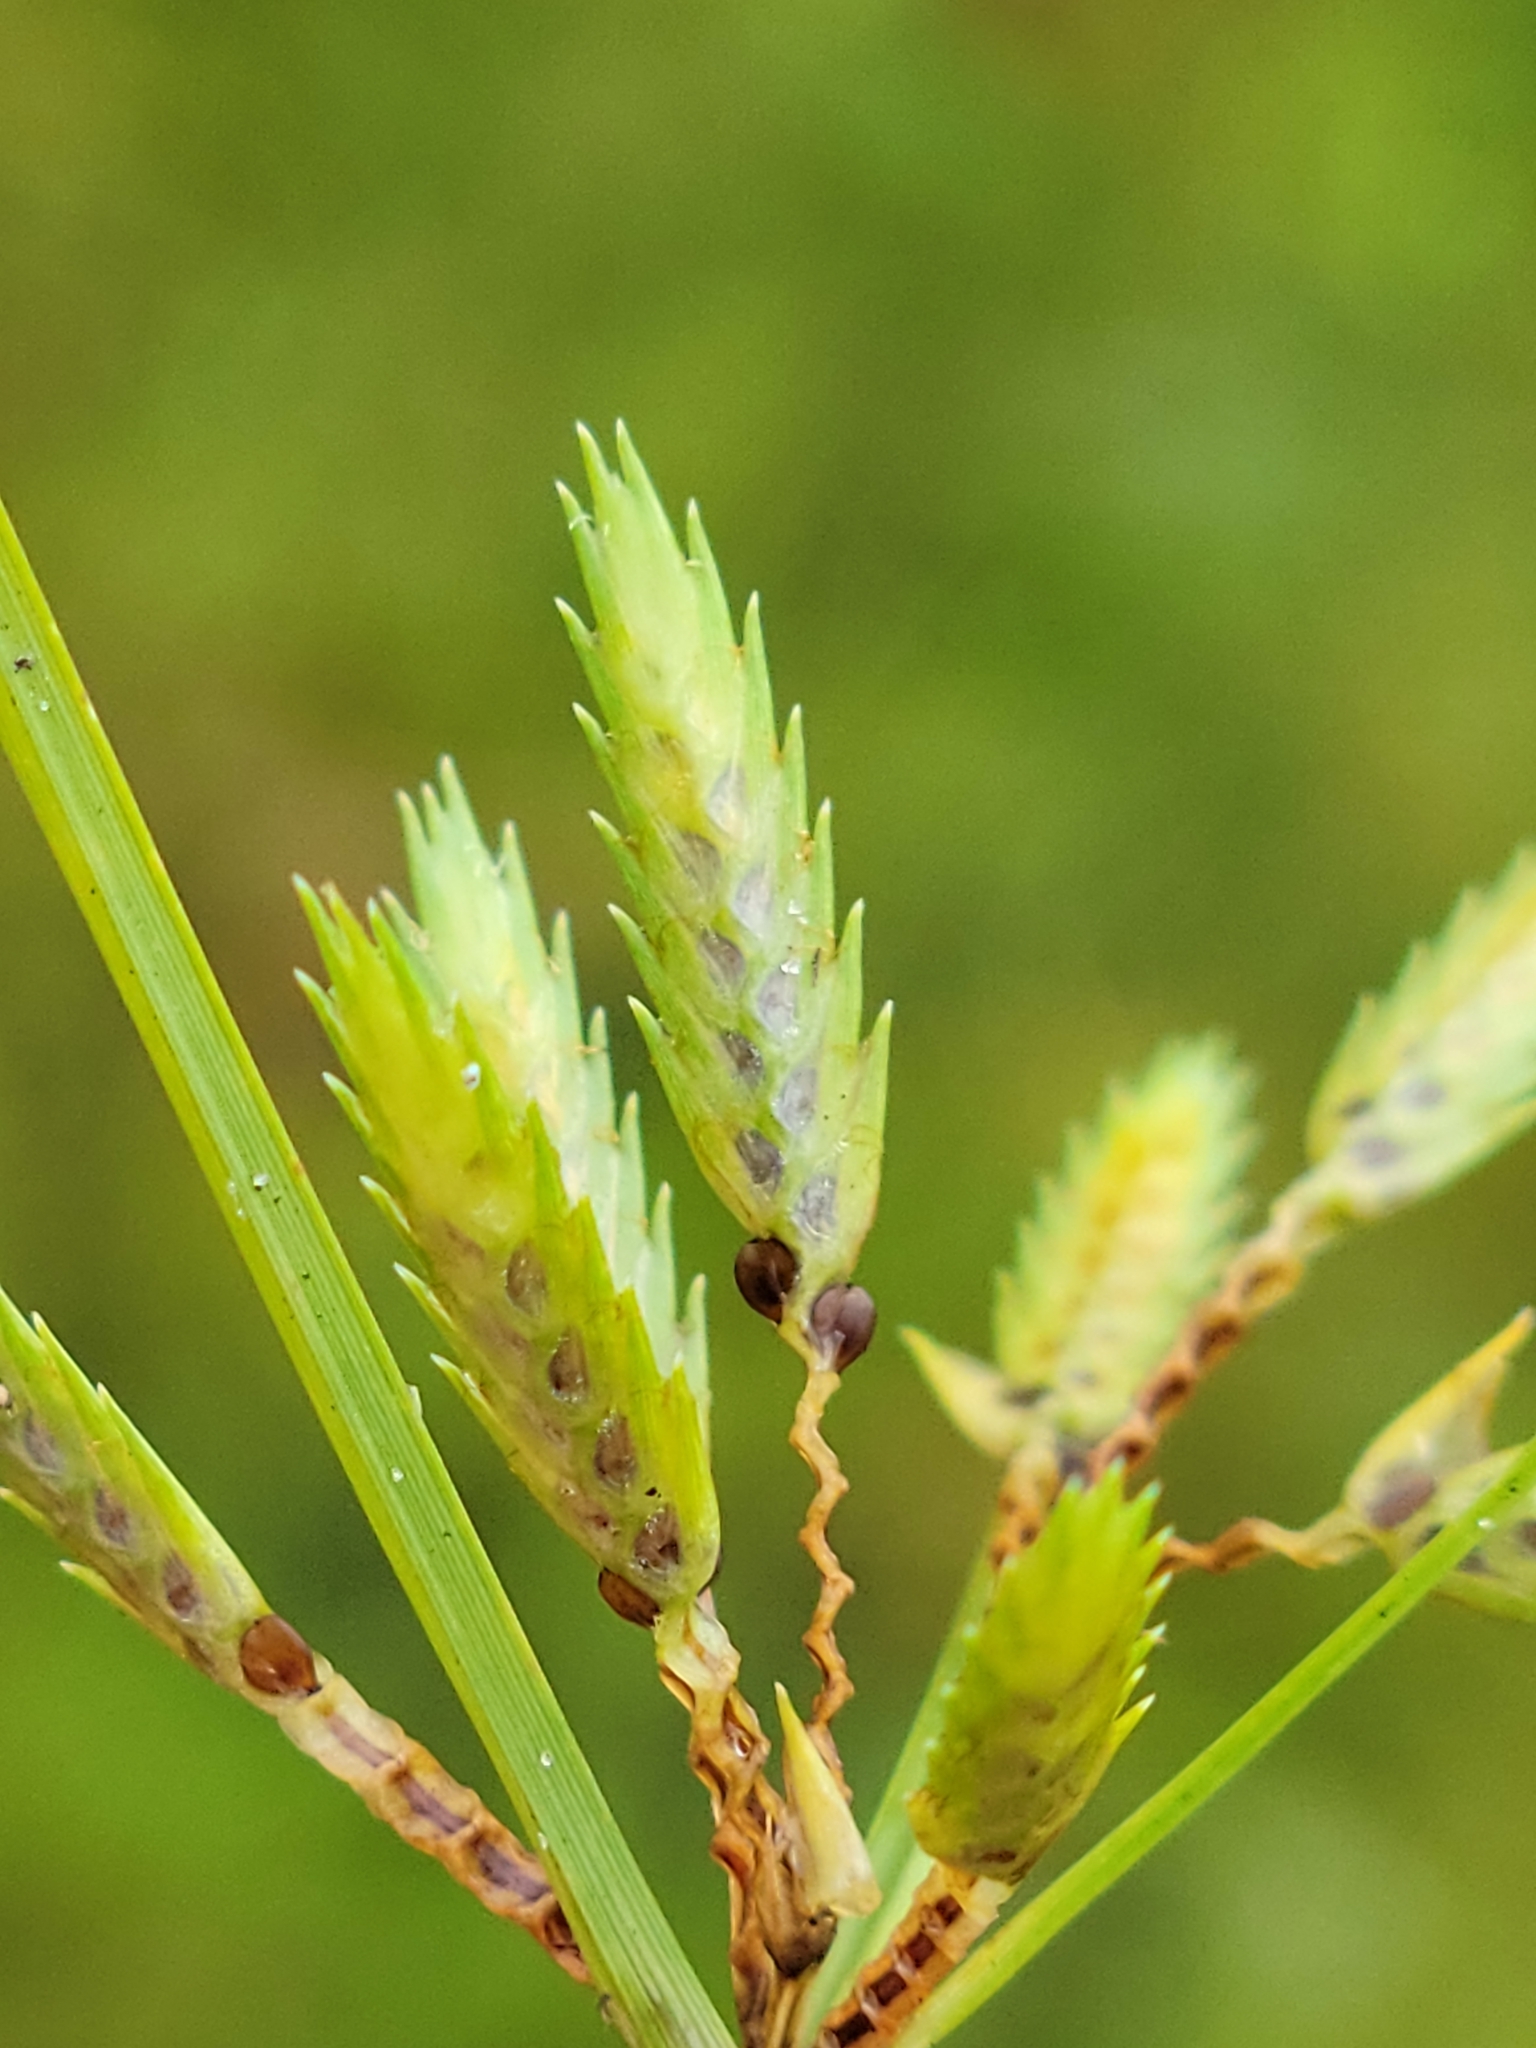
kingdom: Plantae
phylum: Tracheophyta
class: Liliopsida
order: Poales
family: Cyperaceae
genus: Cyperus
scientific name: Cyperus compressus
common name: Poorland flatsedge
